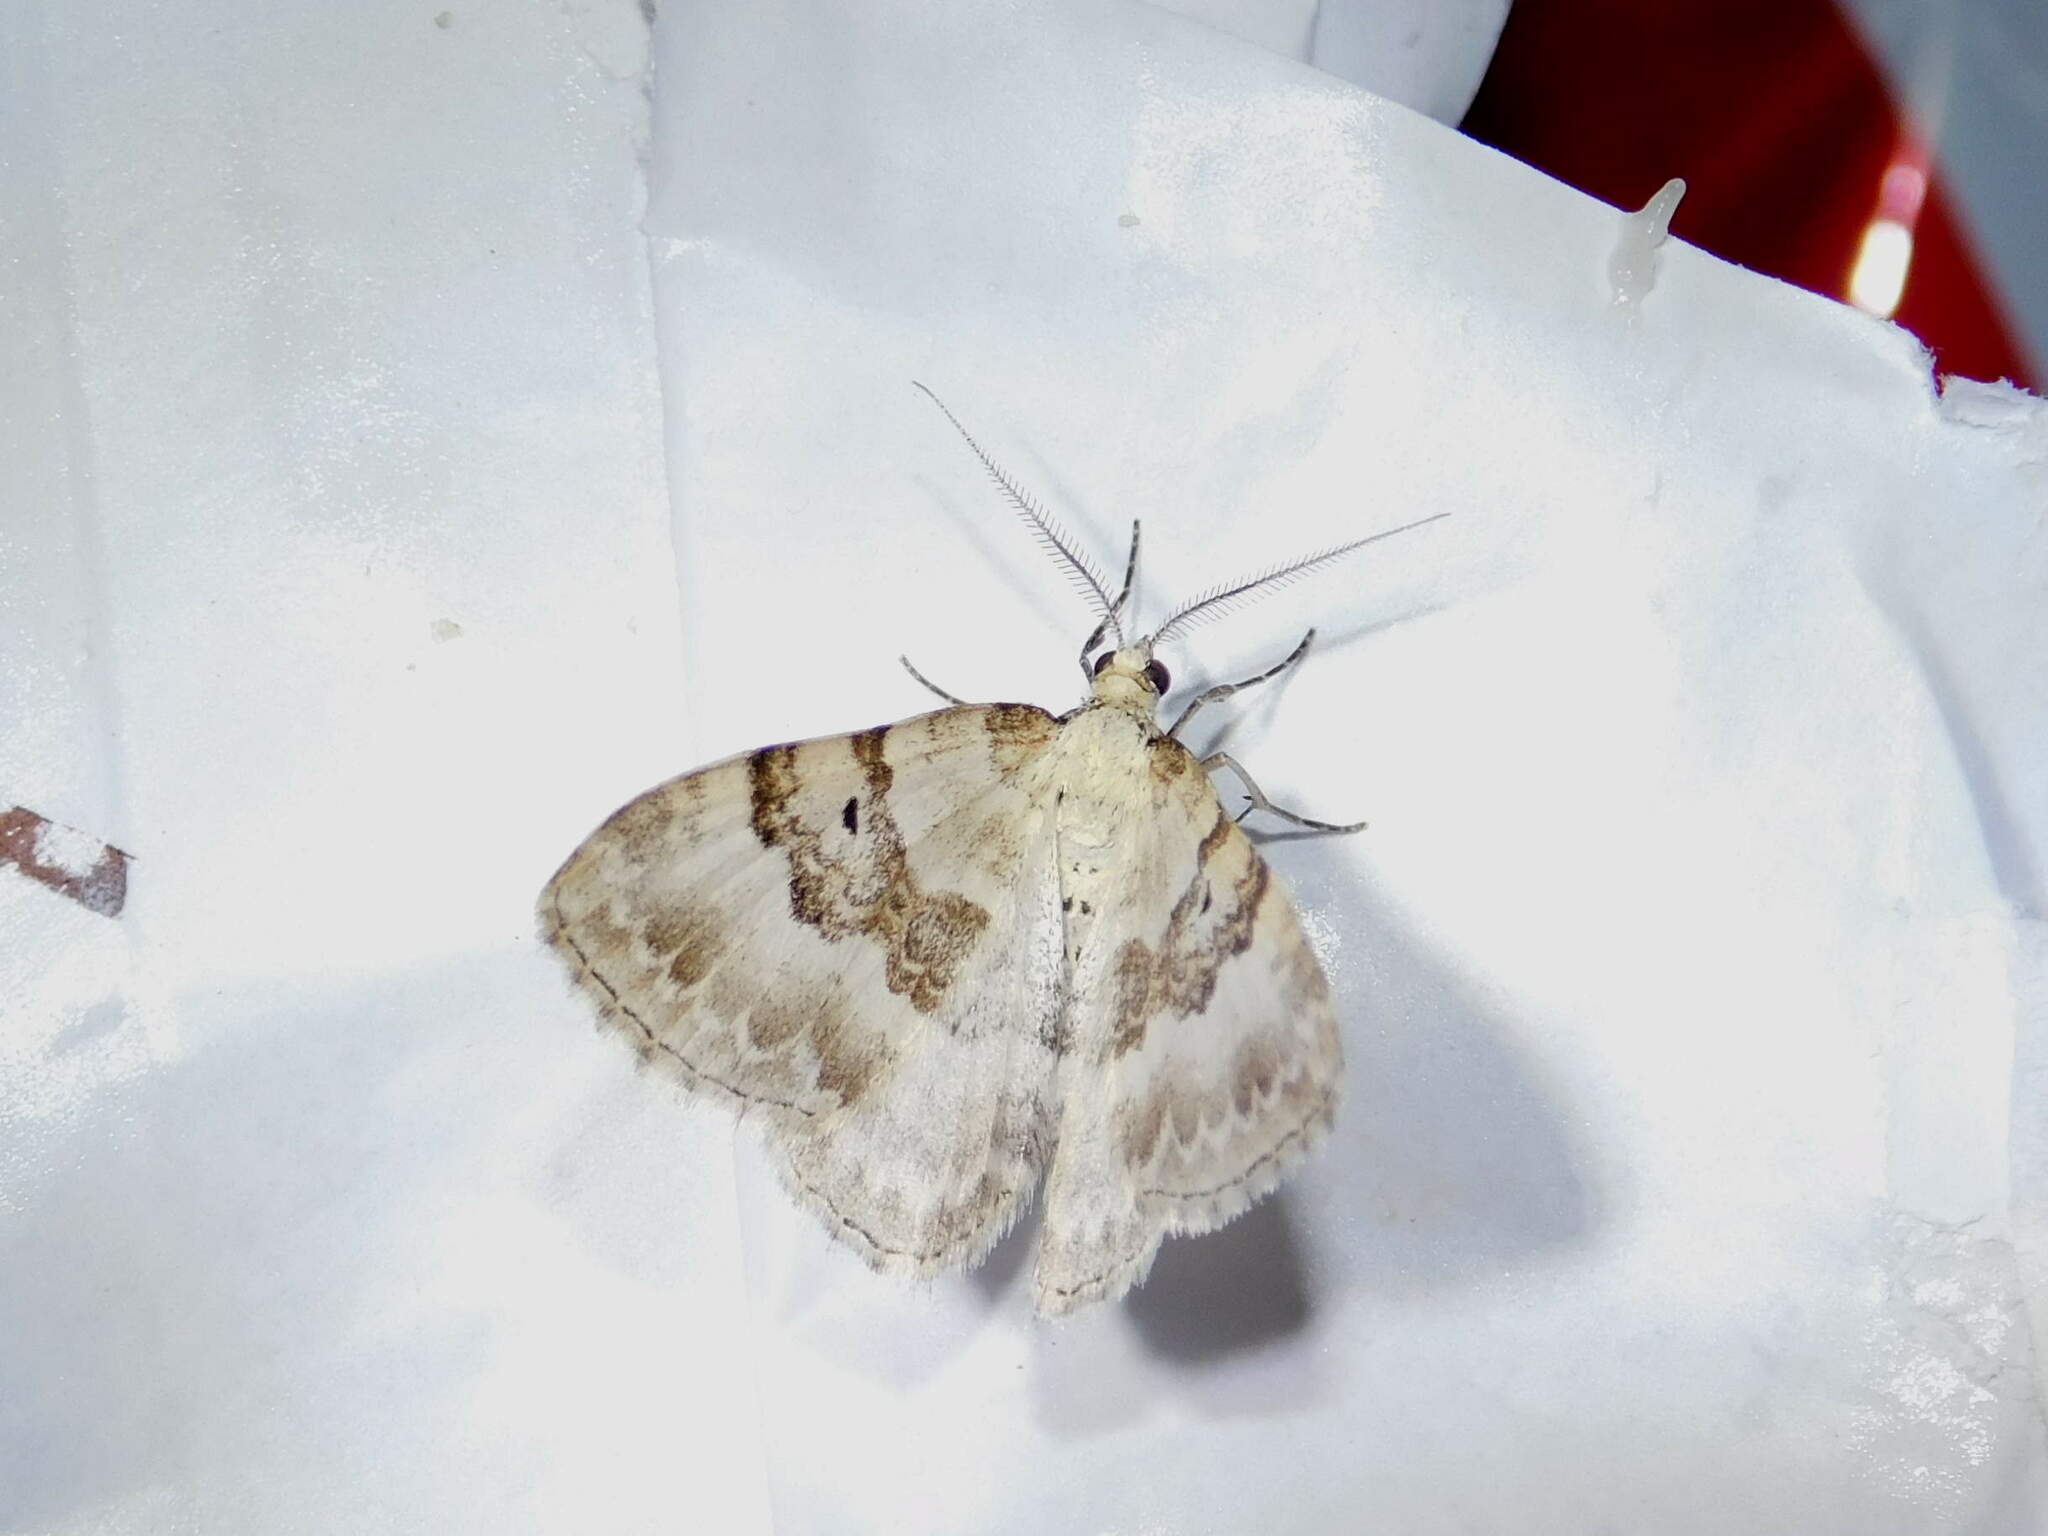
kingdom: Animalia
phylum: Arthropoda
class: Insecta
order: Lepidoptera
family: Geometridae
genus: Xanthorhoe
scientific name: Xanthorhoe montanata
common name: Silver-ground carpet
